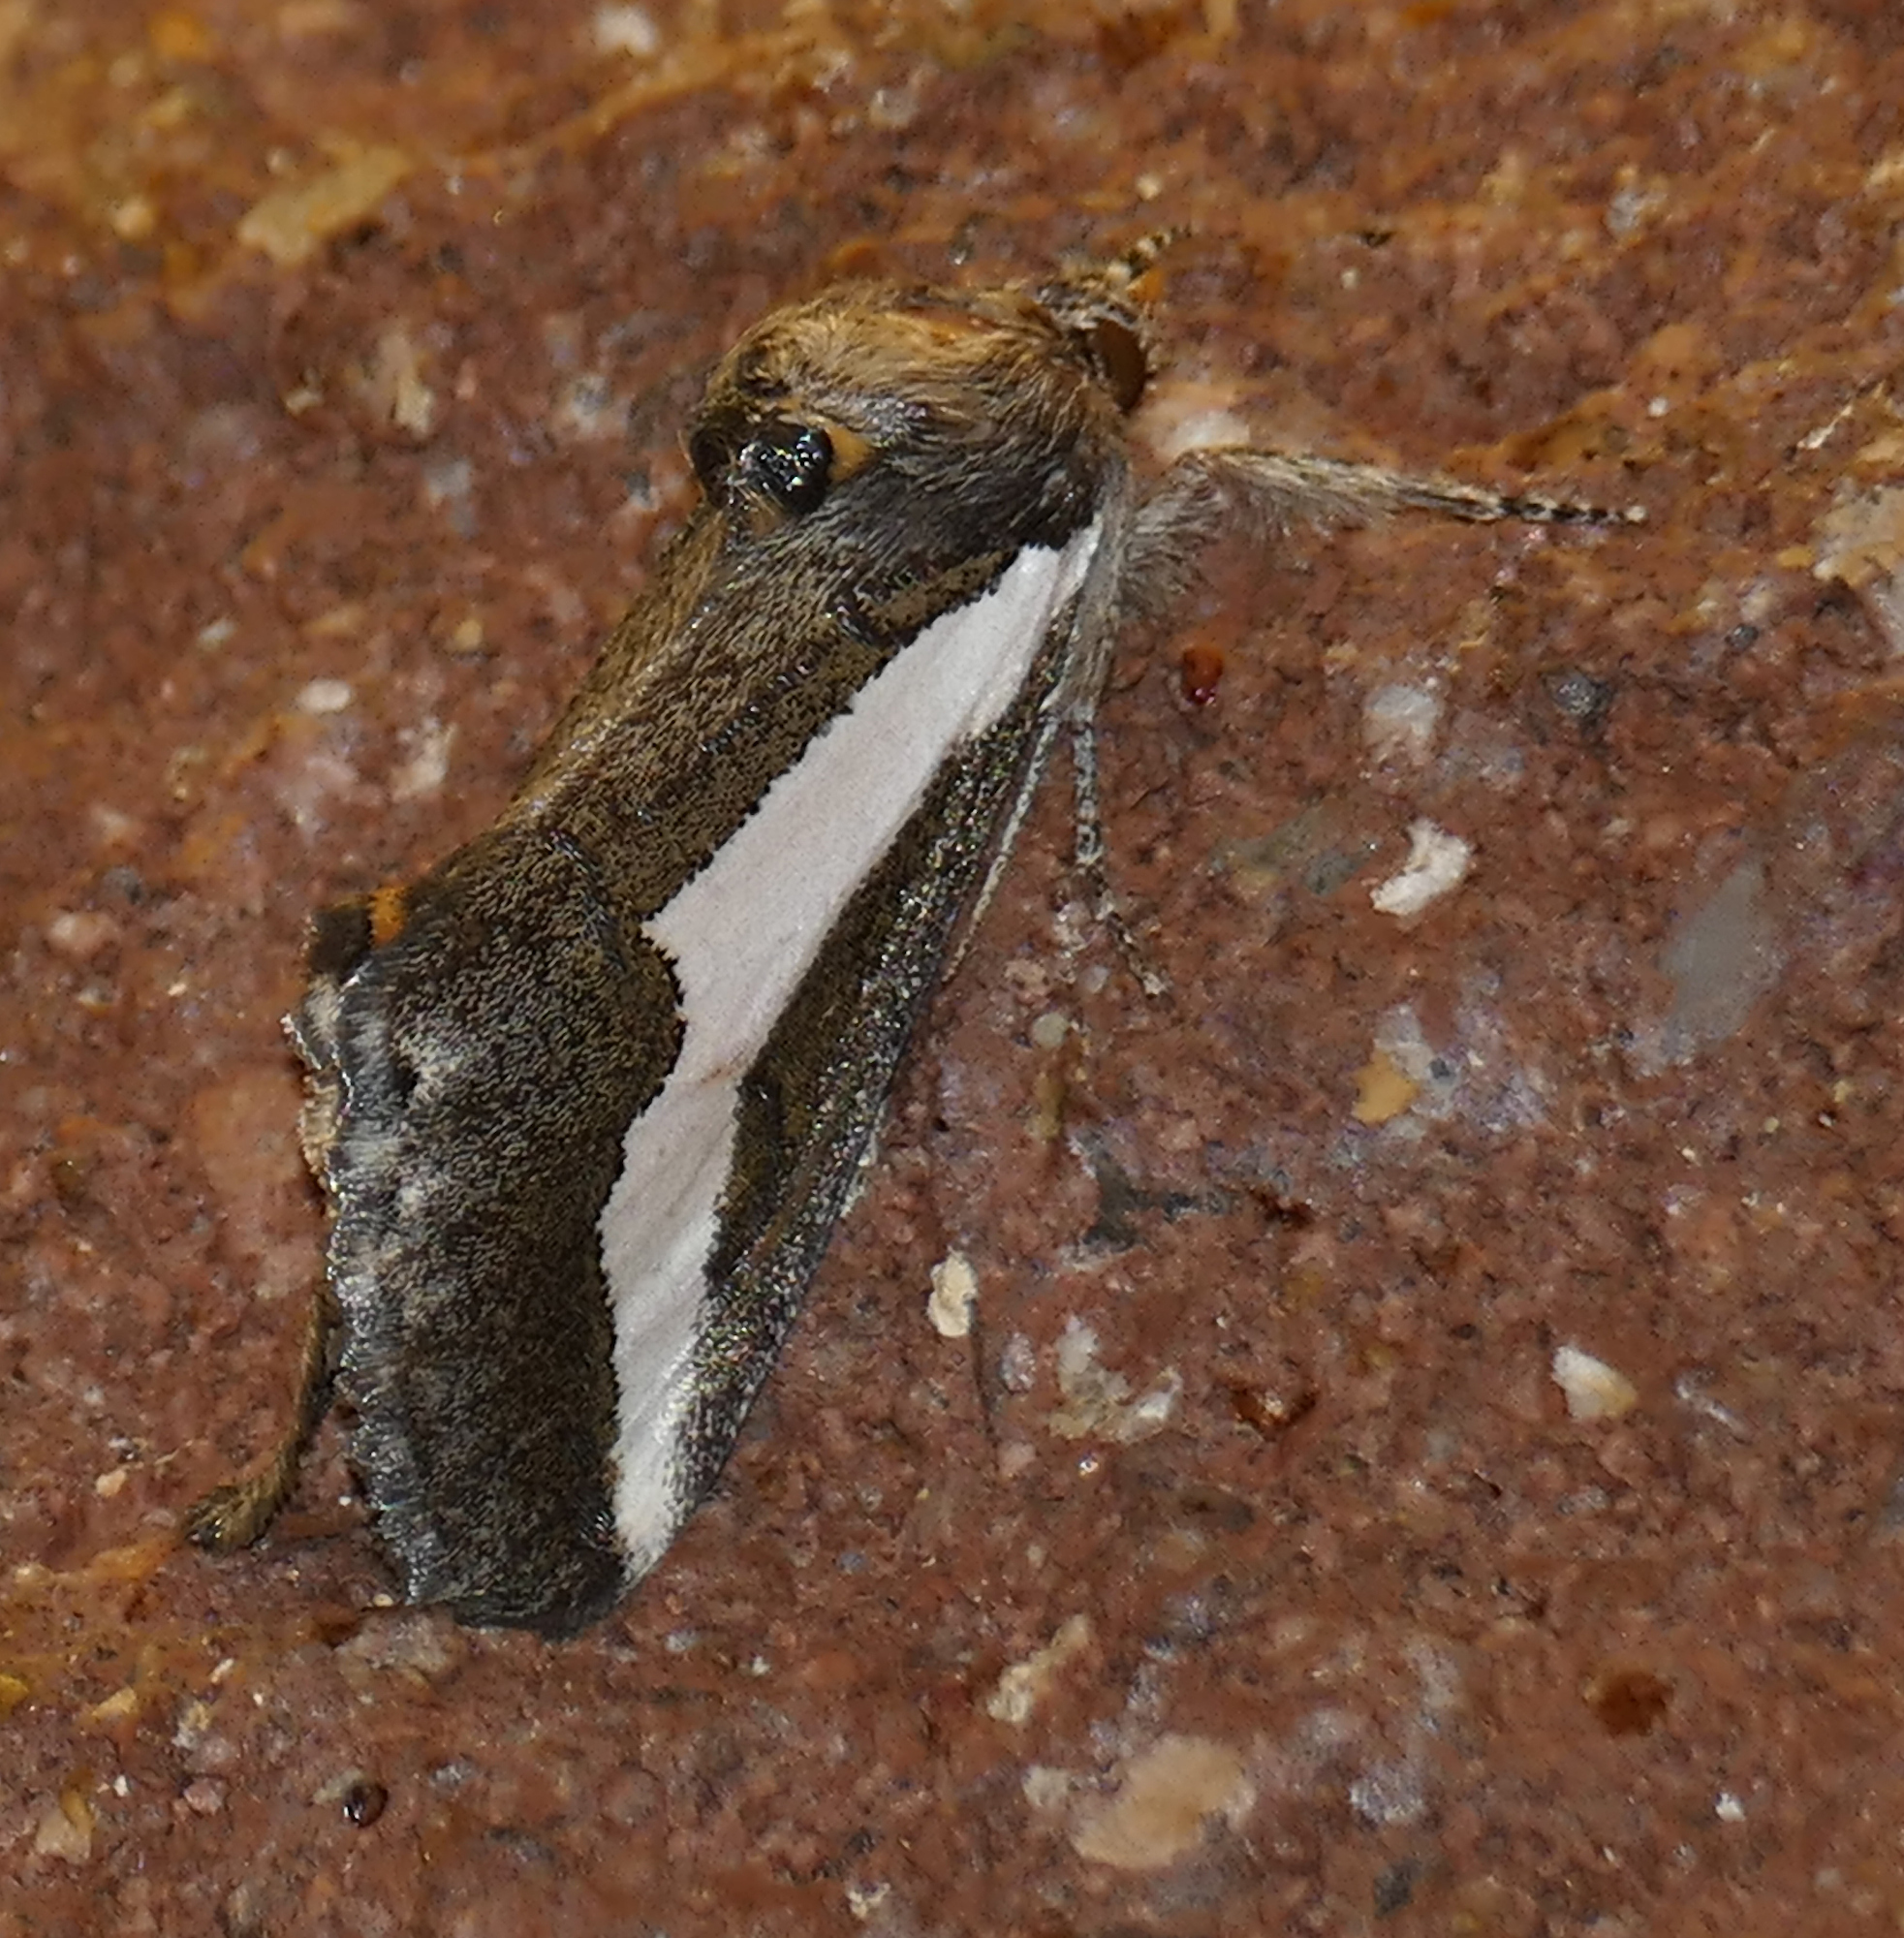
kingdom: Animalia
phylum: Arthropoda
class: Insecta
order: Lepidoptera
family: Noctuidae
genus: Euscirrhopterus
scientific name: Euscirrhopterus cosyra
